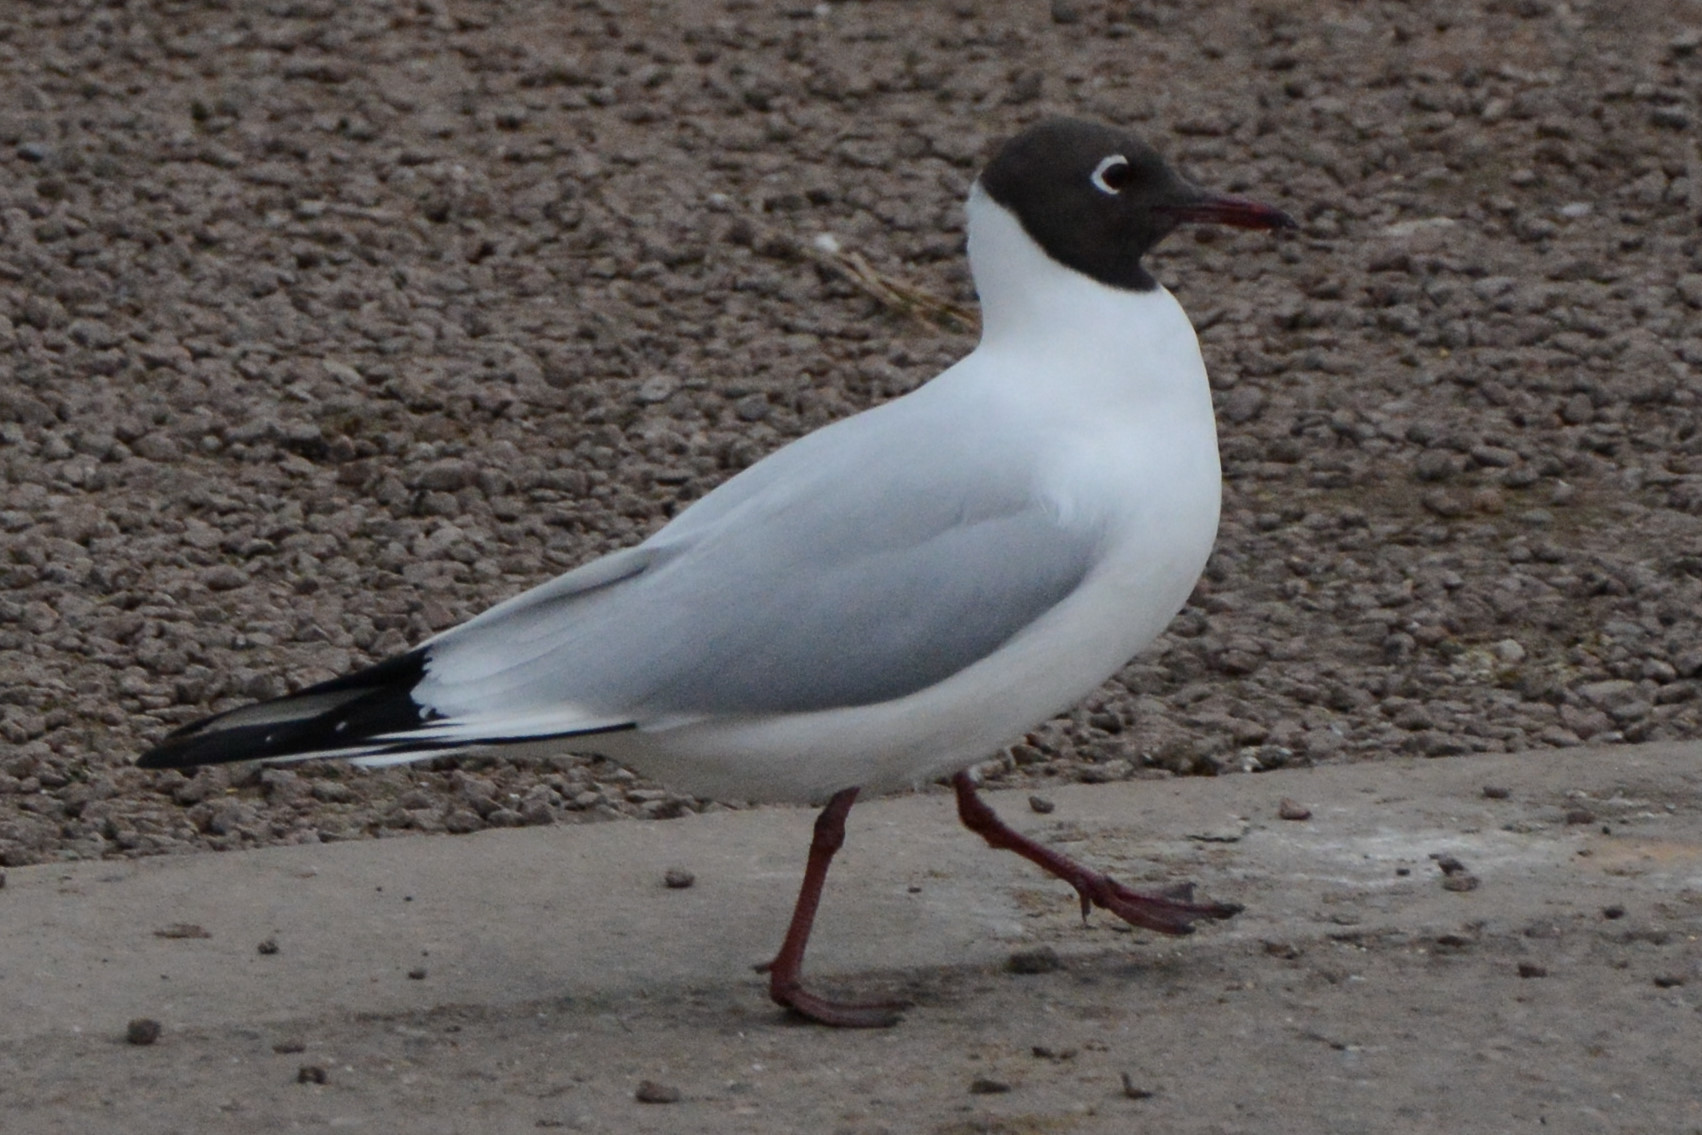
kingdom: Animalia
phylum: Chordata
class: Aves
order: Charadriiformes
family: Laridae
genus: Chroicocephalus
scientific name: Chroicocephalus ridibundus
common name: Black-headed gull
